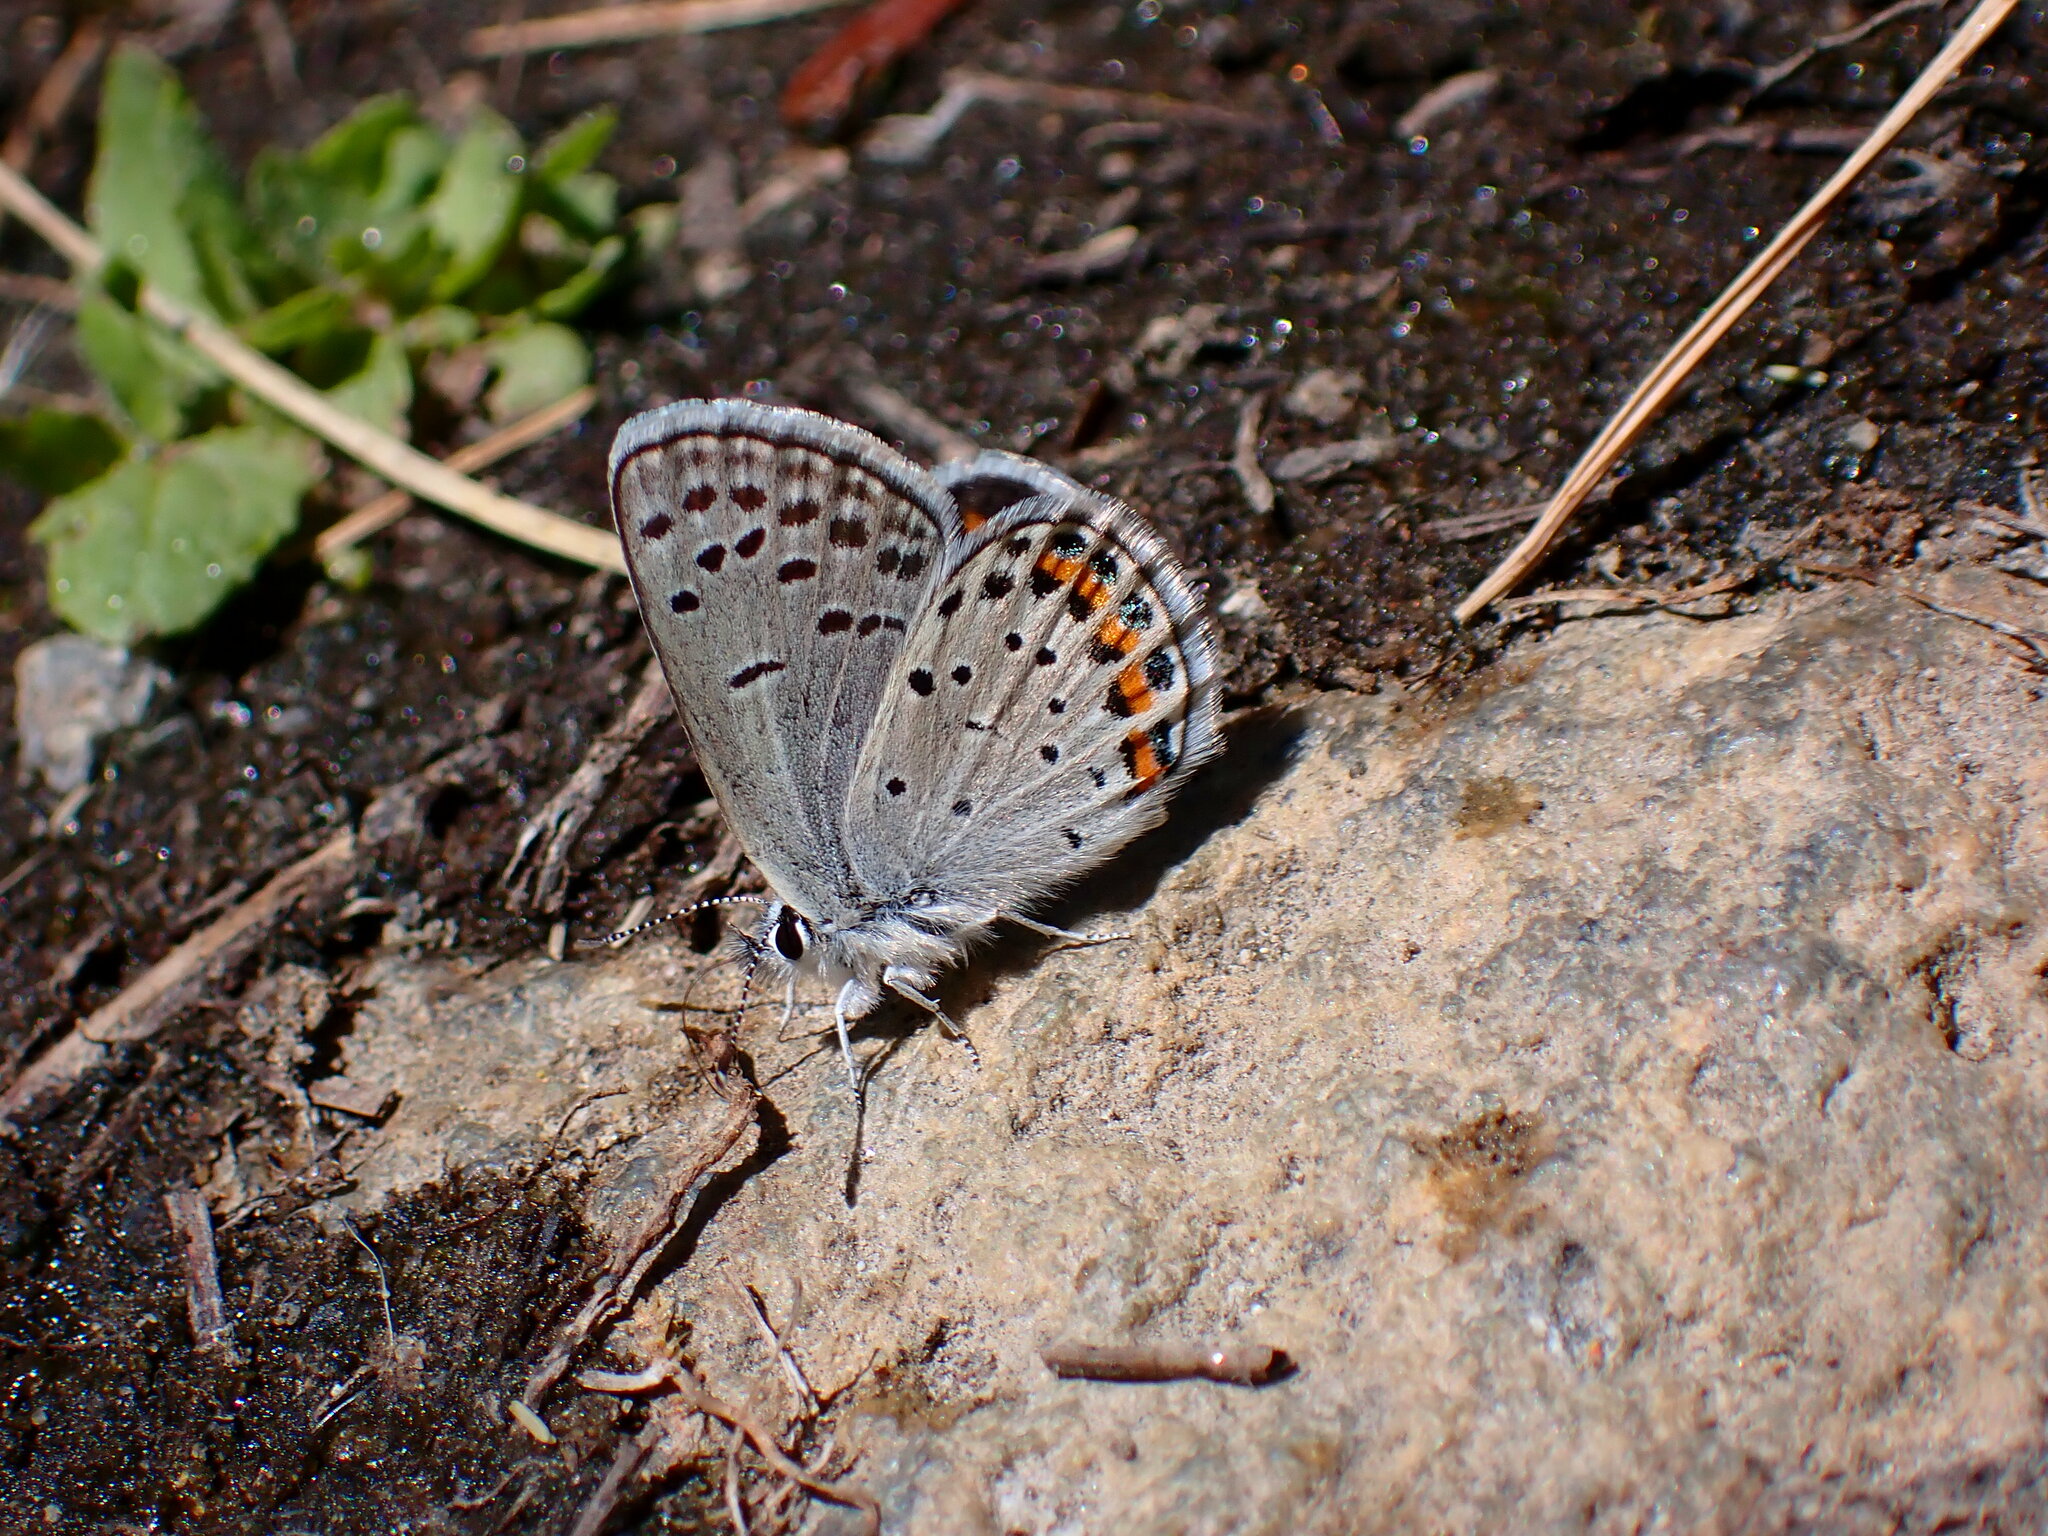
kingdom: Animalia
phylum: Arthropoda
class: Insecta
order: Lepidoptera
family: Lycaenidae
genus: Icaricia
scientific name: Icaricia lupini
